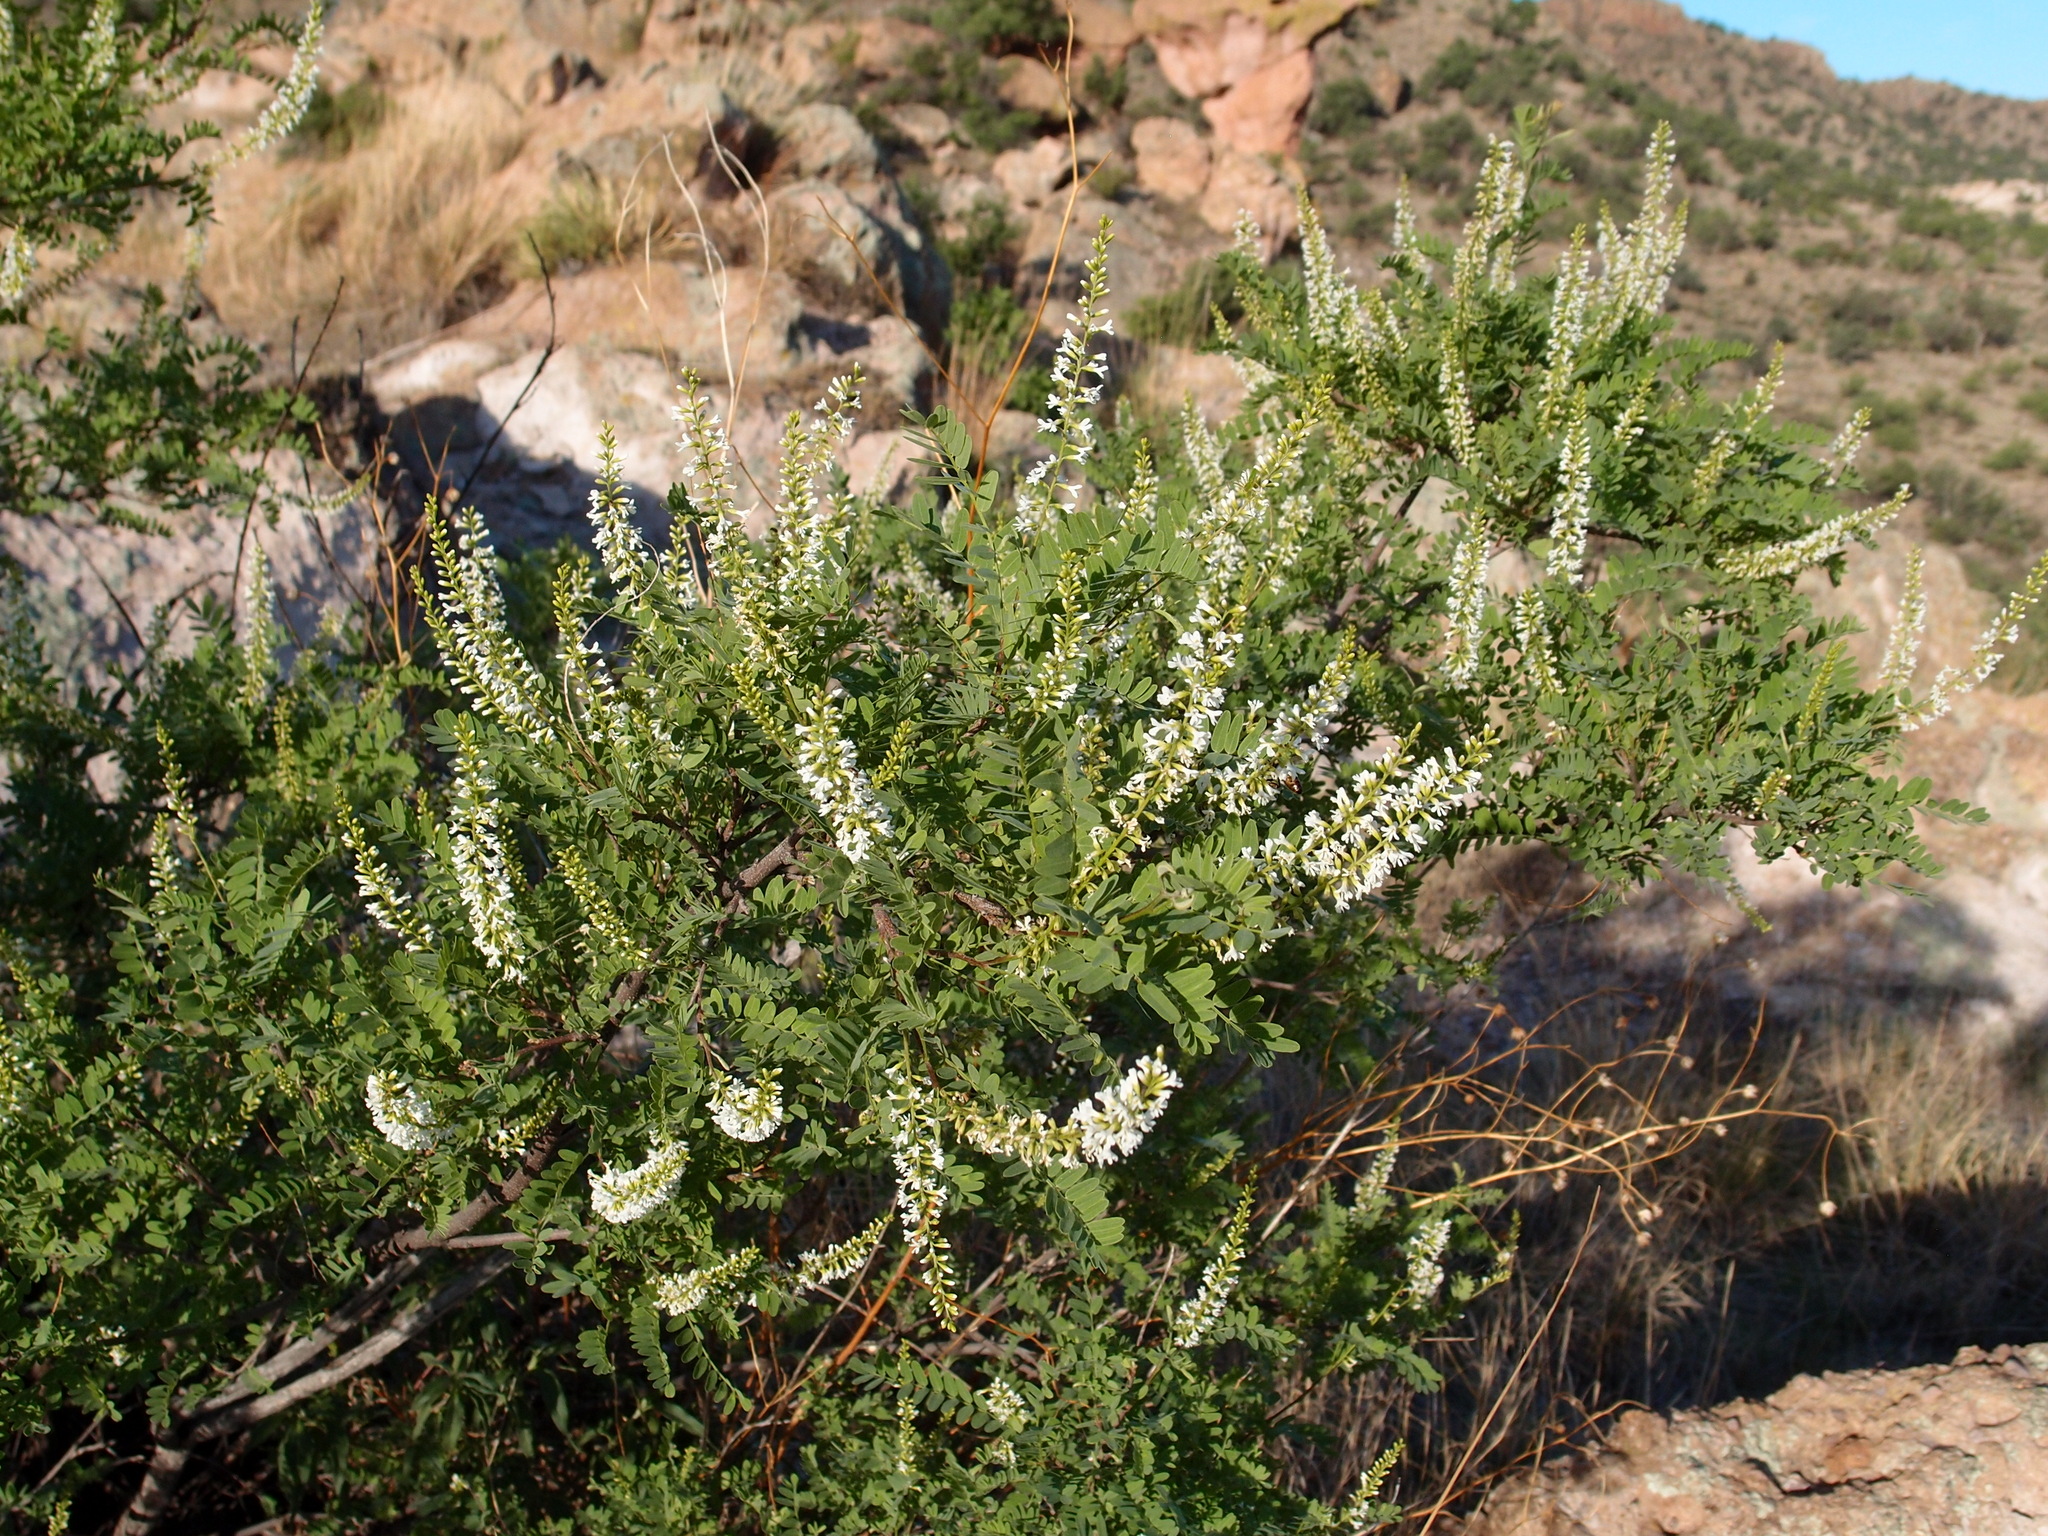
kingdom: Plantae
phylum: Tracheophyta
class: Magnoliopsida
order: Fabales
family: Fabaceae
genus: Eysenhardtia
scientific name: Eysenhardtia orthocarpa
